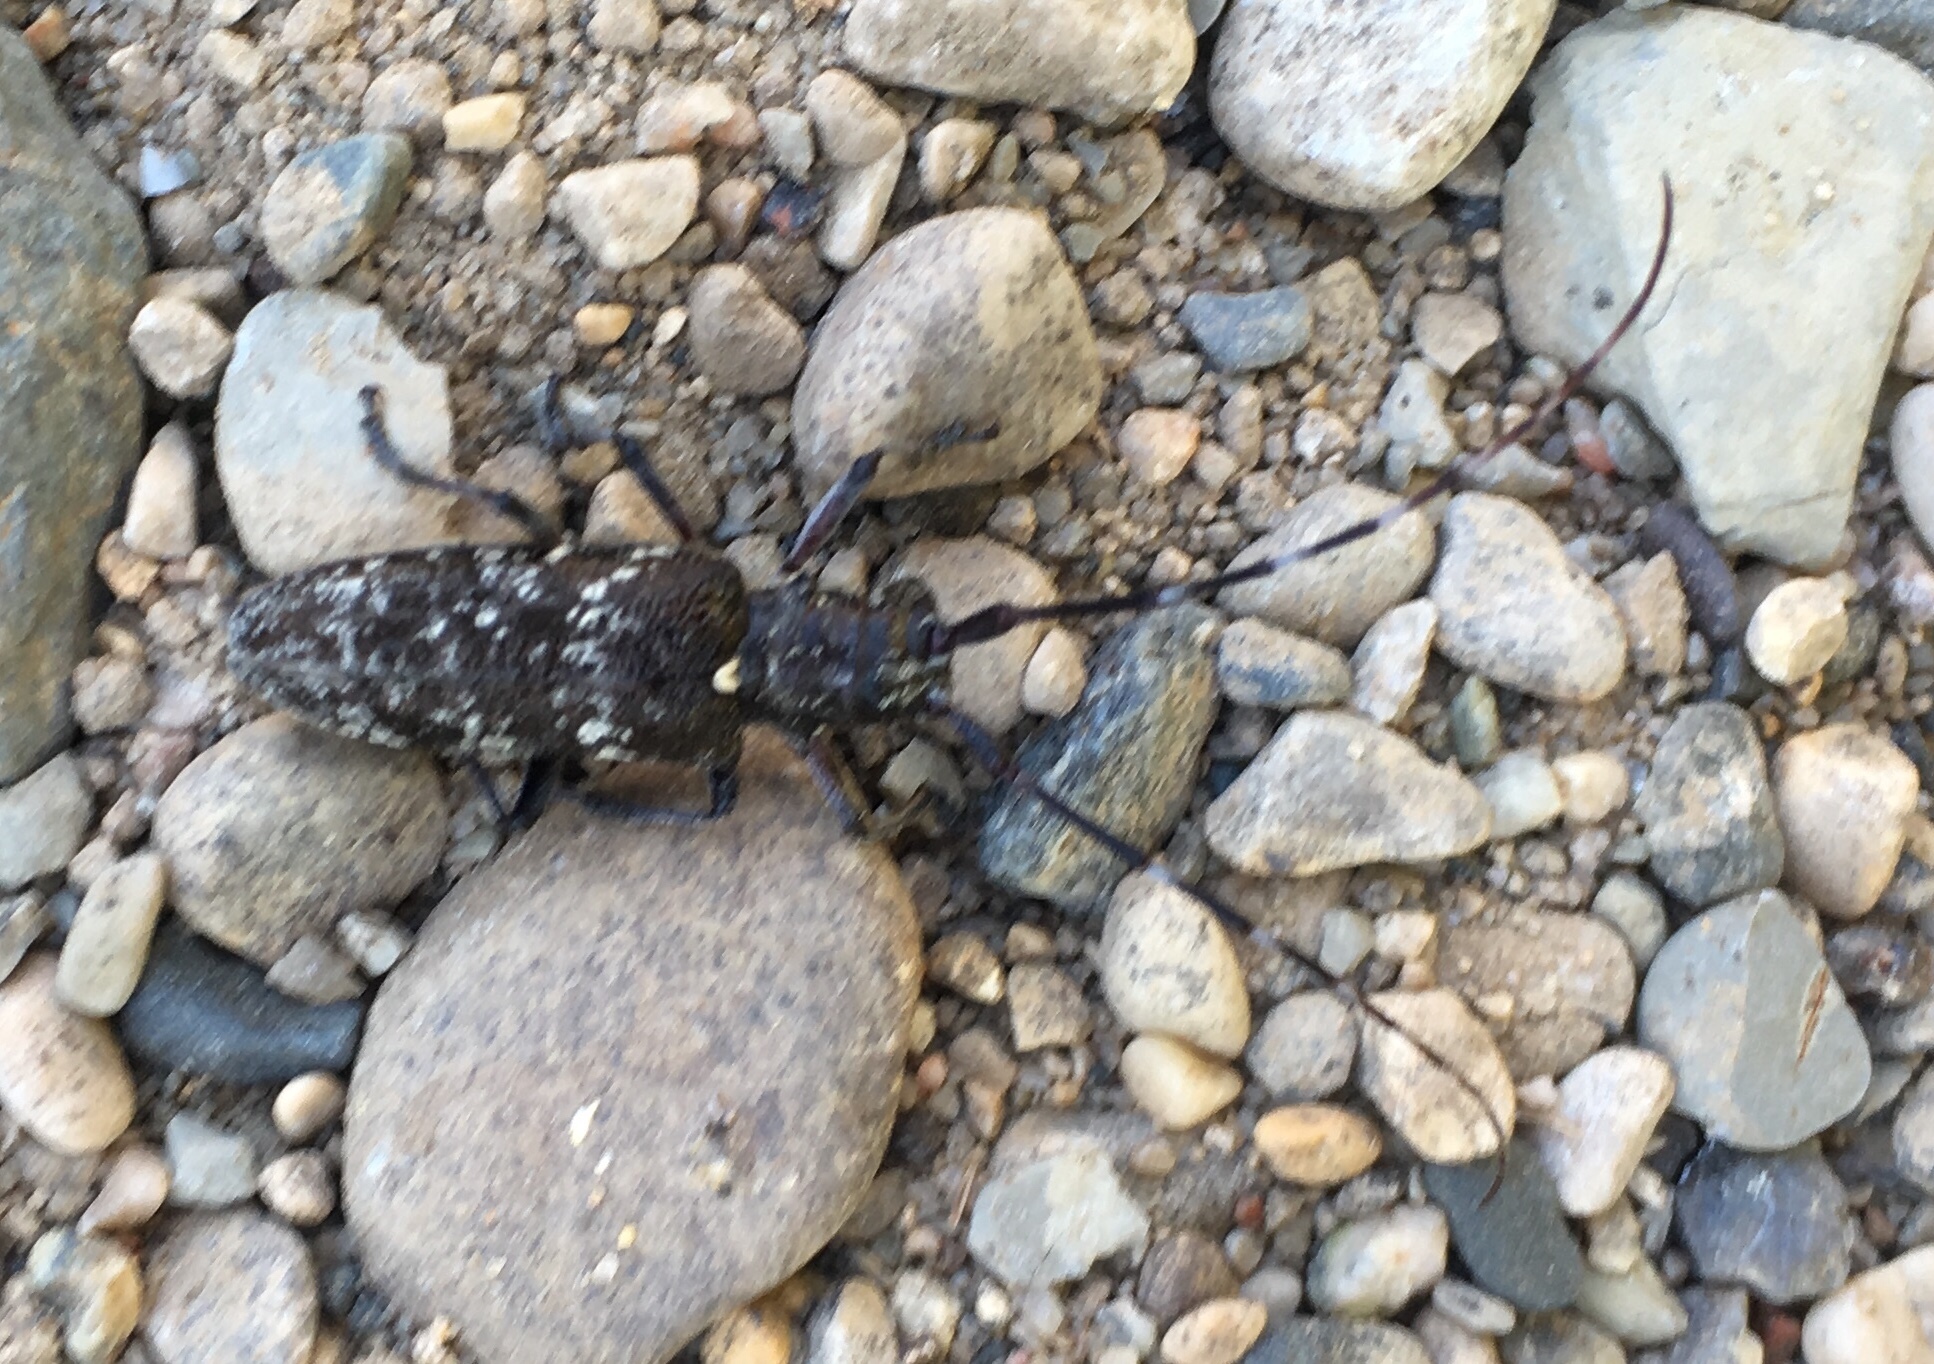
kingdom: Animalia
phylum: Arthropoda
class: Insecta
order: Coleoptera
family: Cerambycidae
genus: Monochamus
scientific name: Monochamus scutellatus
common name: White-spotted sawyer beetle
